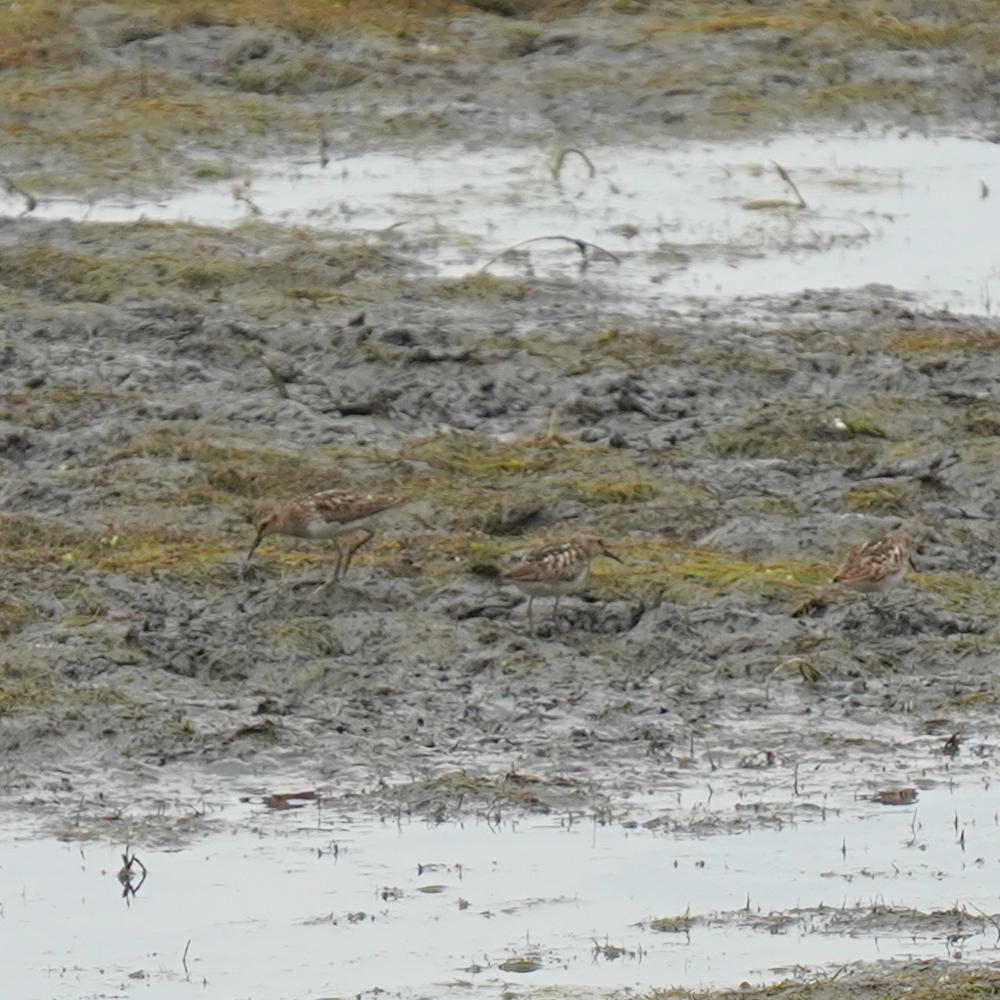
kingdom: Animalia
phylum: Chordata
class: Aves
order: Charadriiformes
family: Scolopacidae
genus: Calidris
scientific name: Calidris minutilla
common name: Least sandpiper
